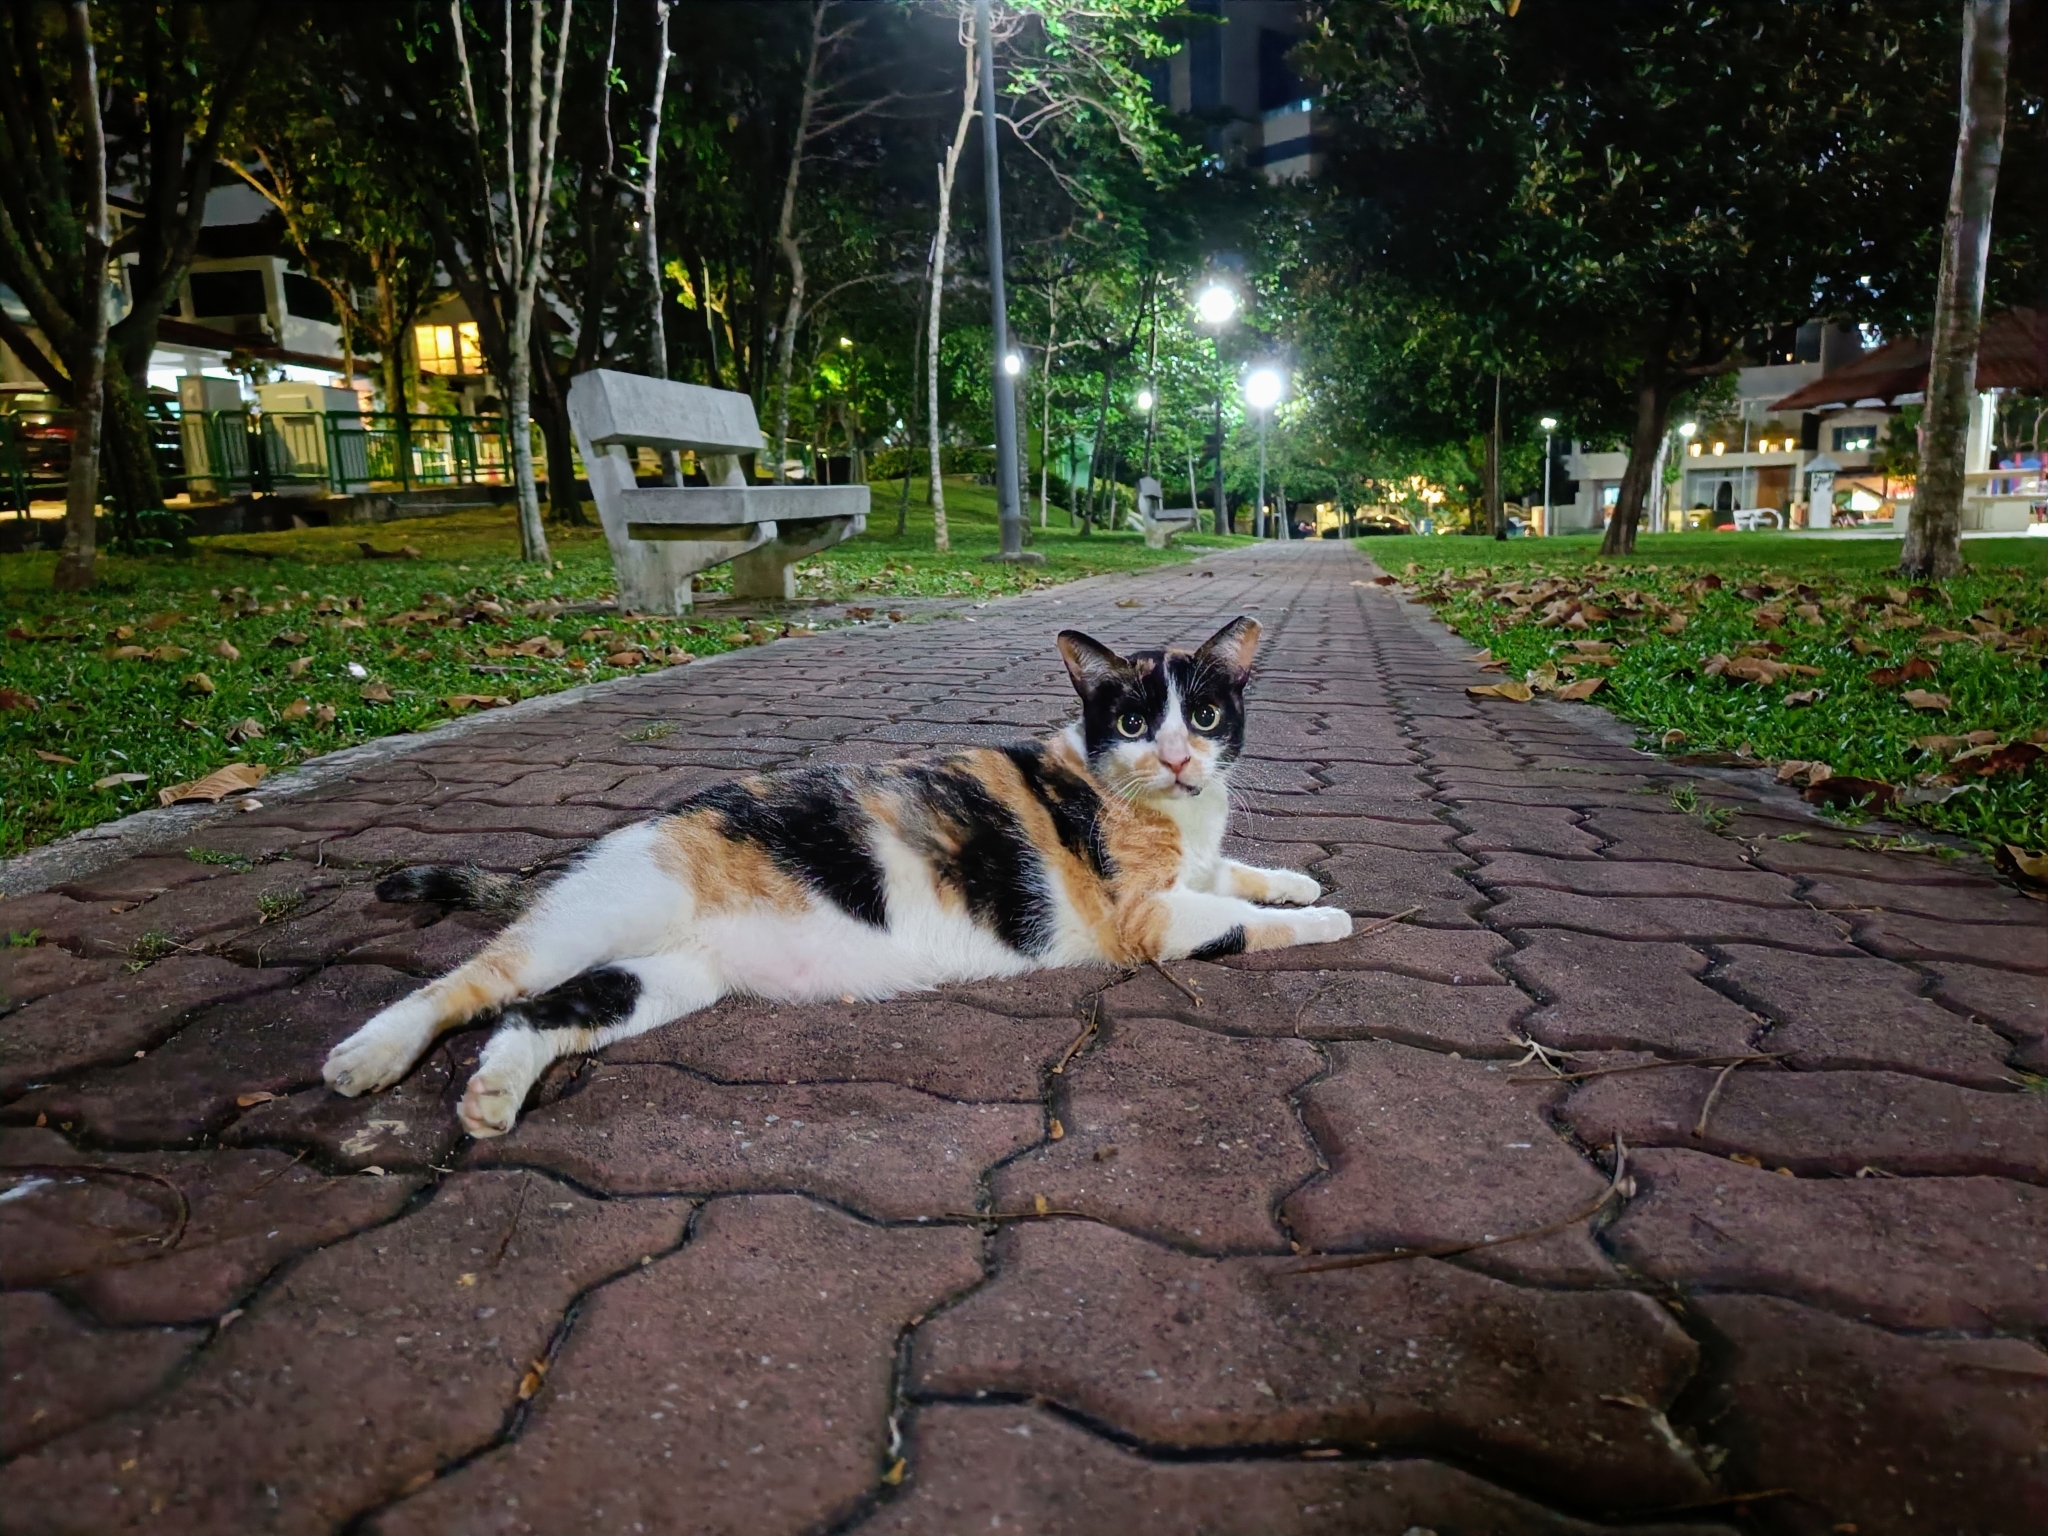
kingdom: Animalia
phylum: Chordata
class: Mammalia
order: Carnivora
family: Felidae
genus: Felis
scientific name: Felis catus
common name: Domestic cat
